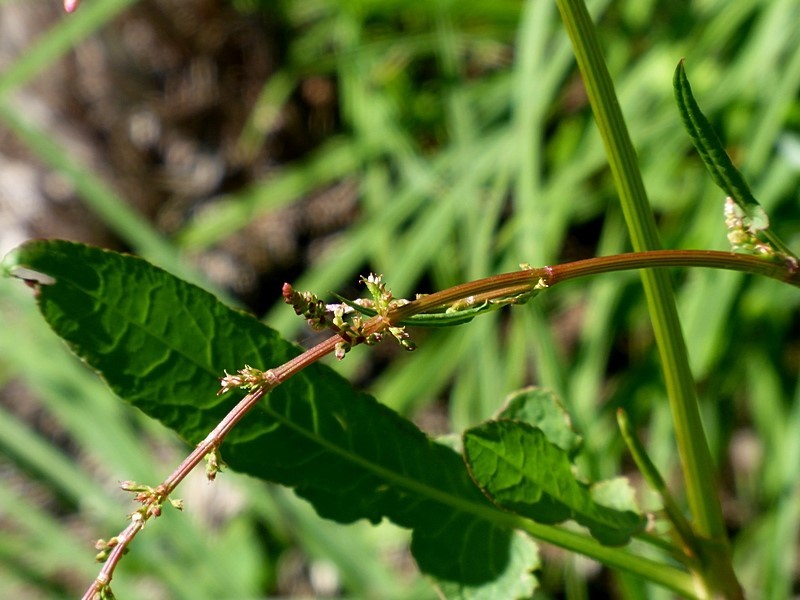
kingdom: Plantae
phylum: Tracheophyta
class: Magnoliopsida
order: Caryophyllales
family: Polygonaceae
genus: Rumex
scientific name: Rumex brownii
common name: Hooked dock
